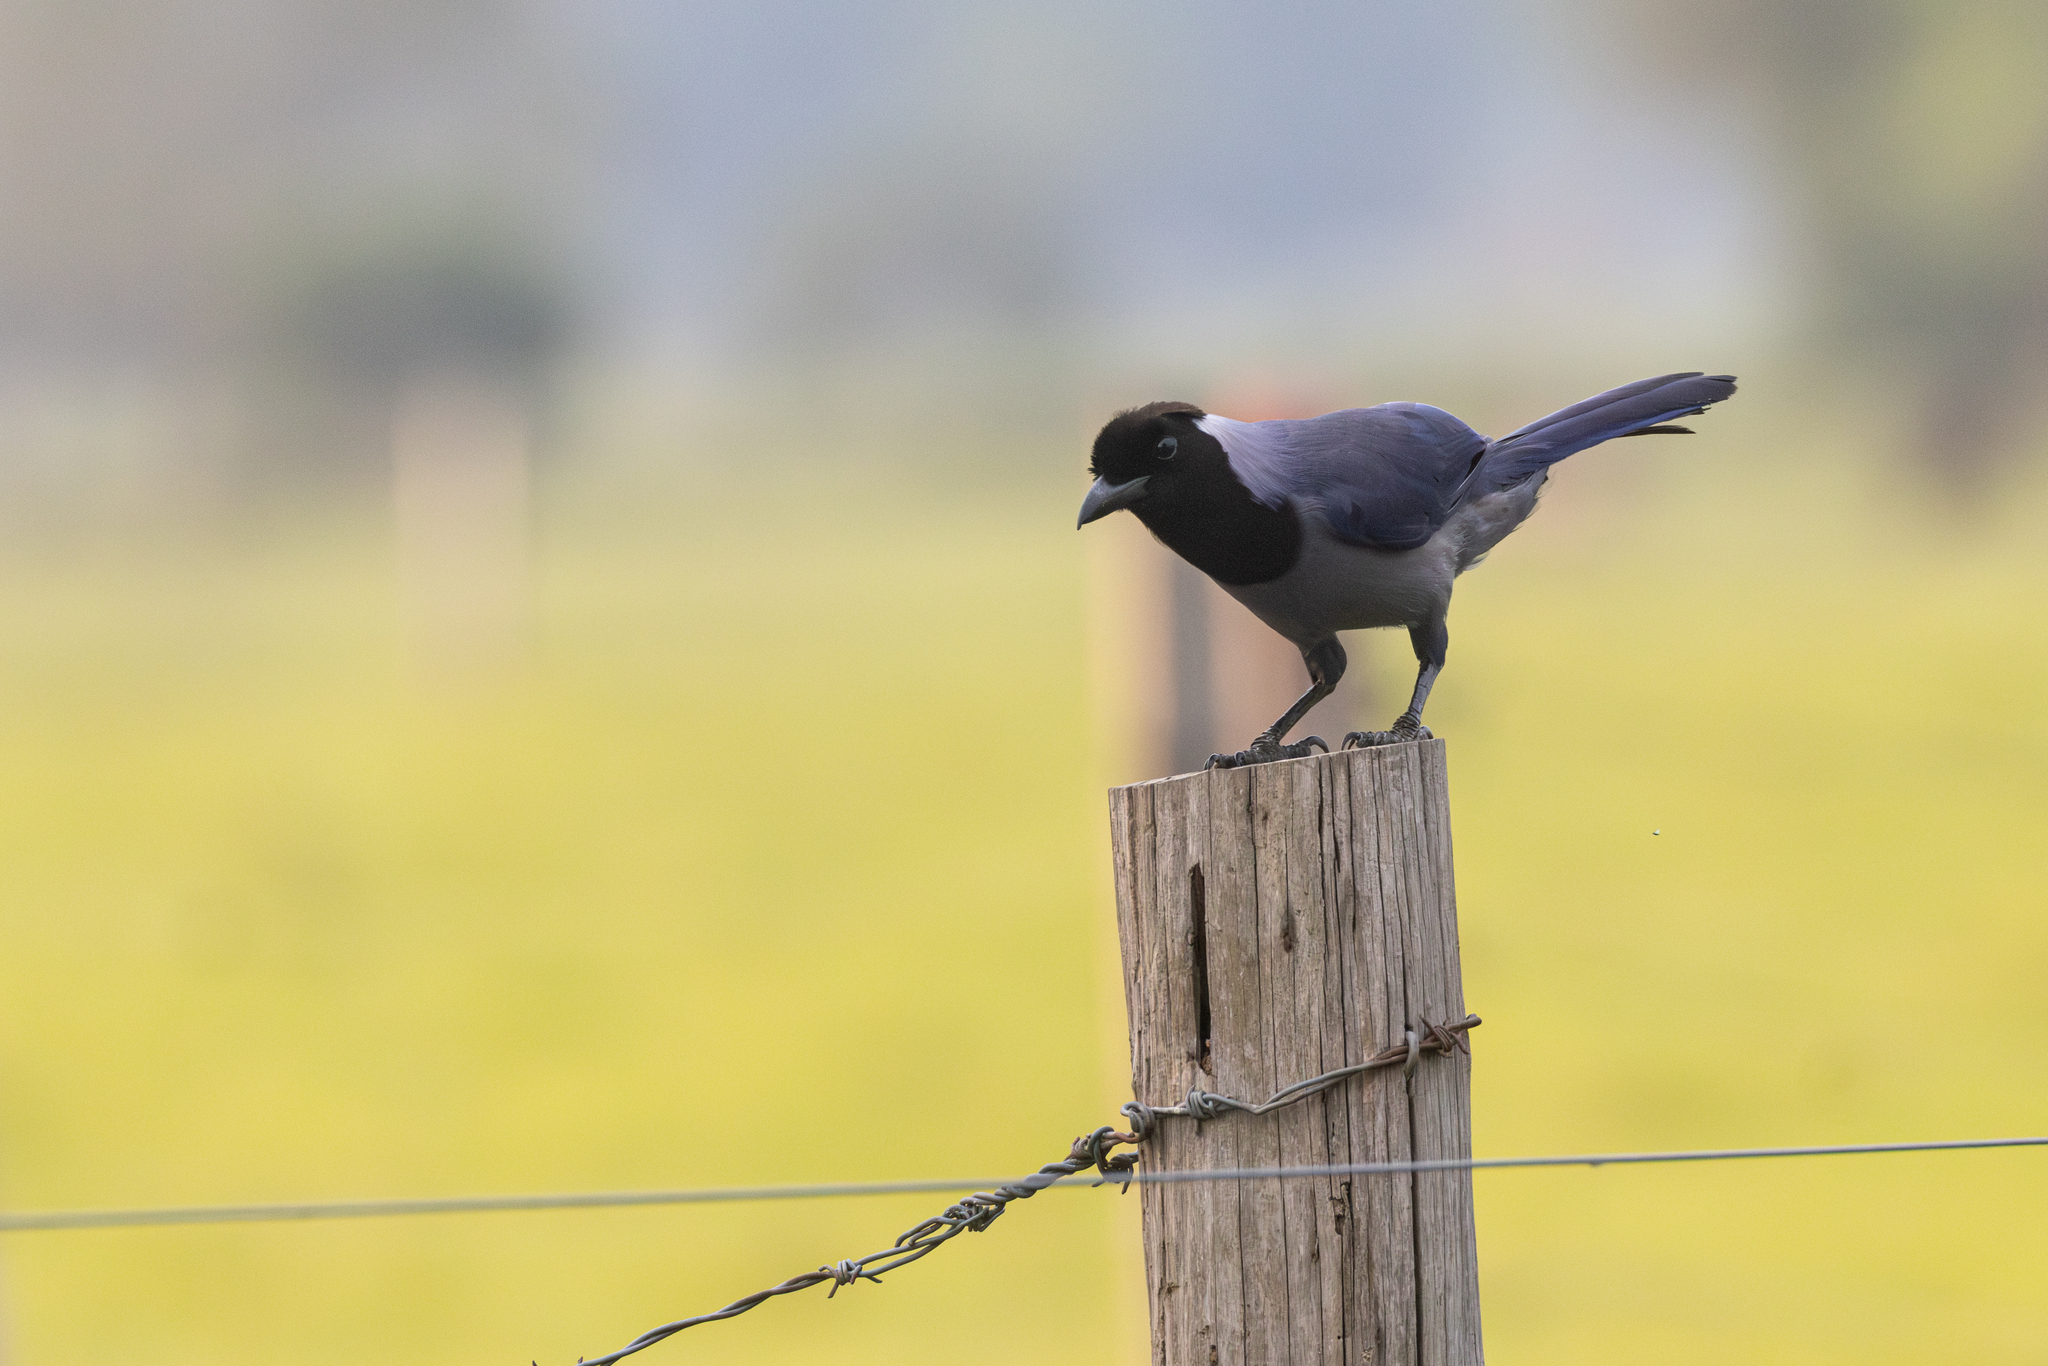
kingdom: Animalia
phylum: Chordata
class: Aves
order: Passeriformes
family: Corvidae
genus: Cyanocorax
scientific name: Cyanocorax violaceus
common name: Violaceous jay
